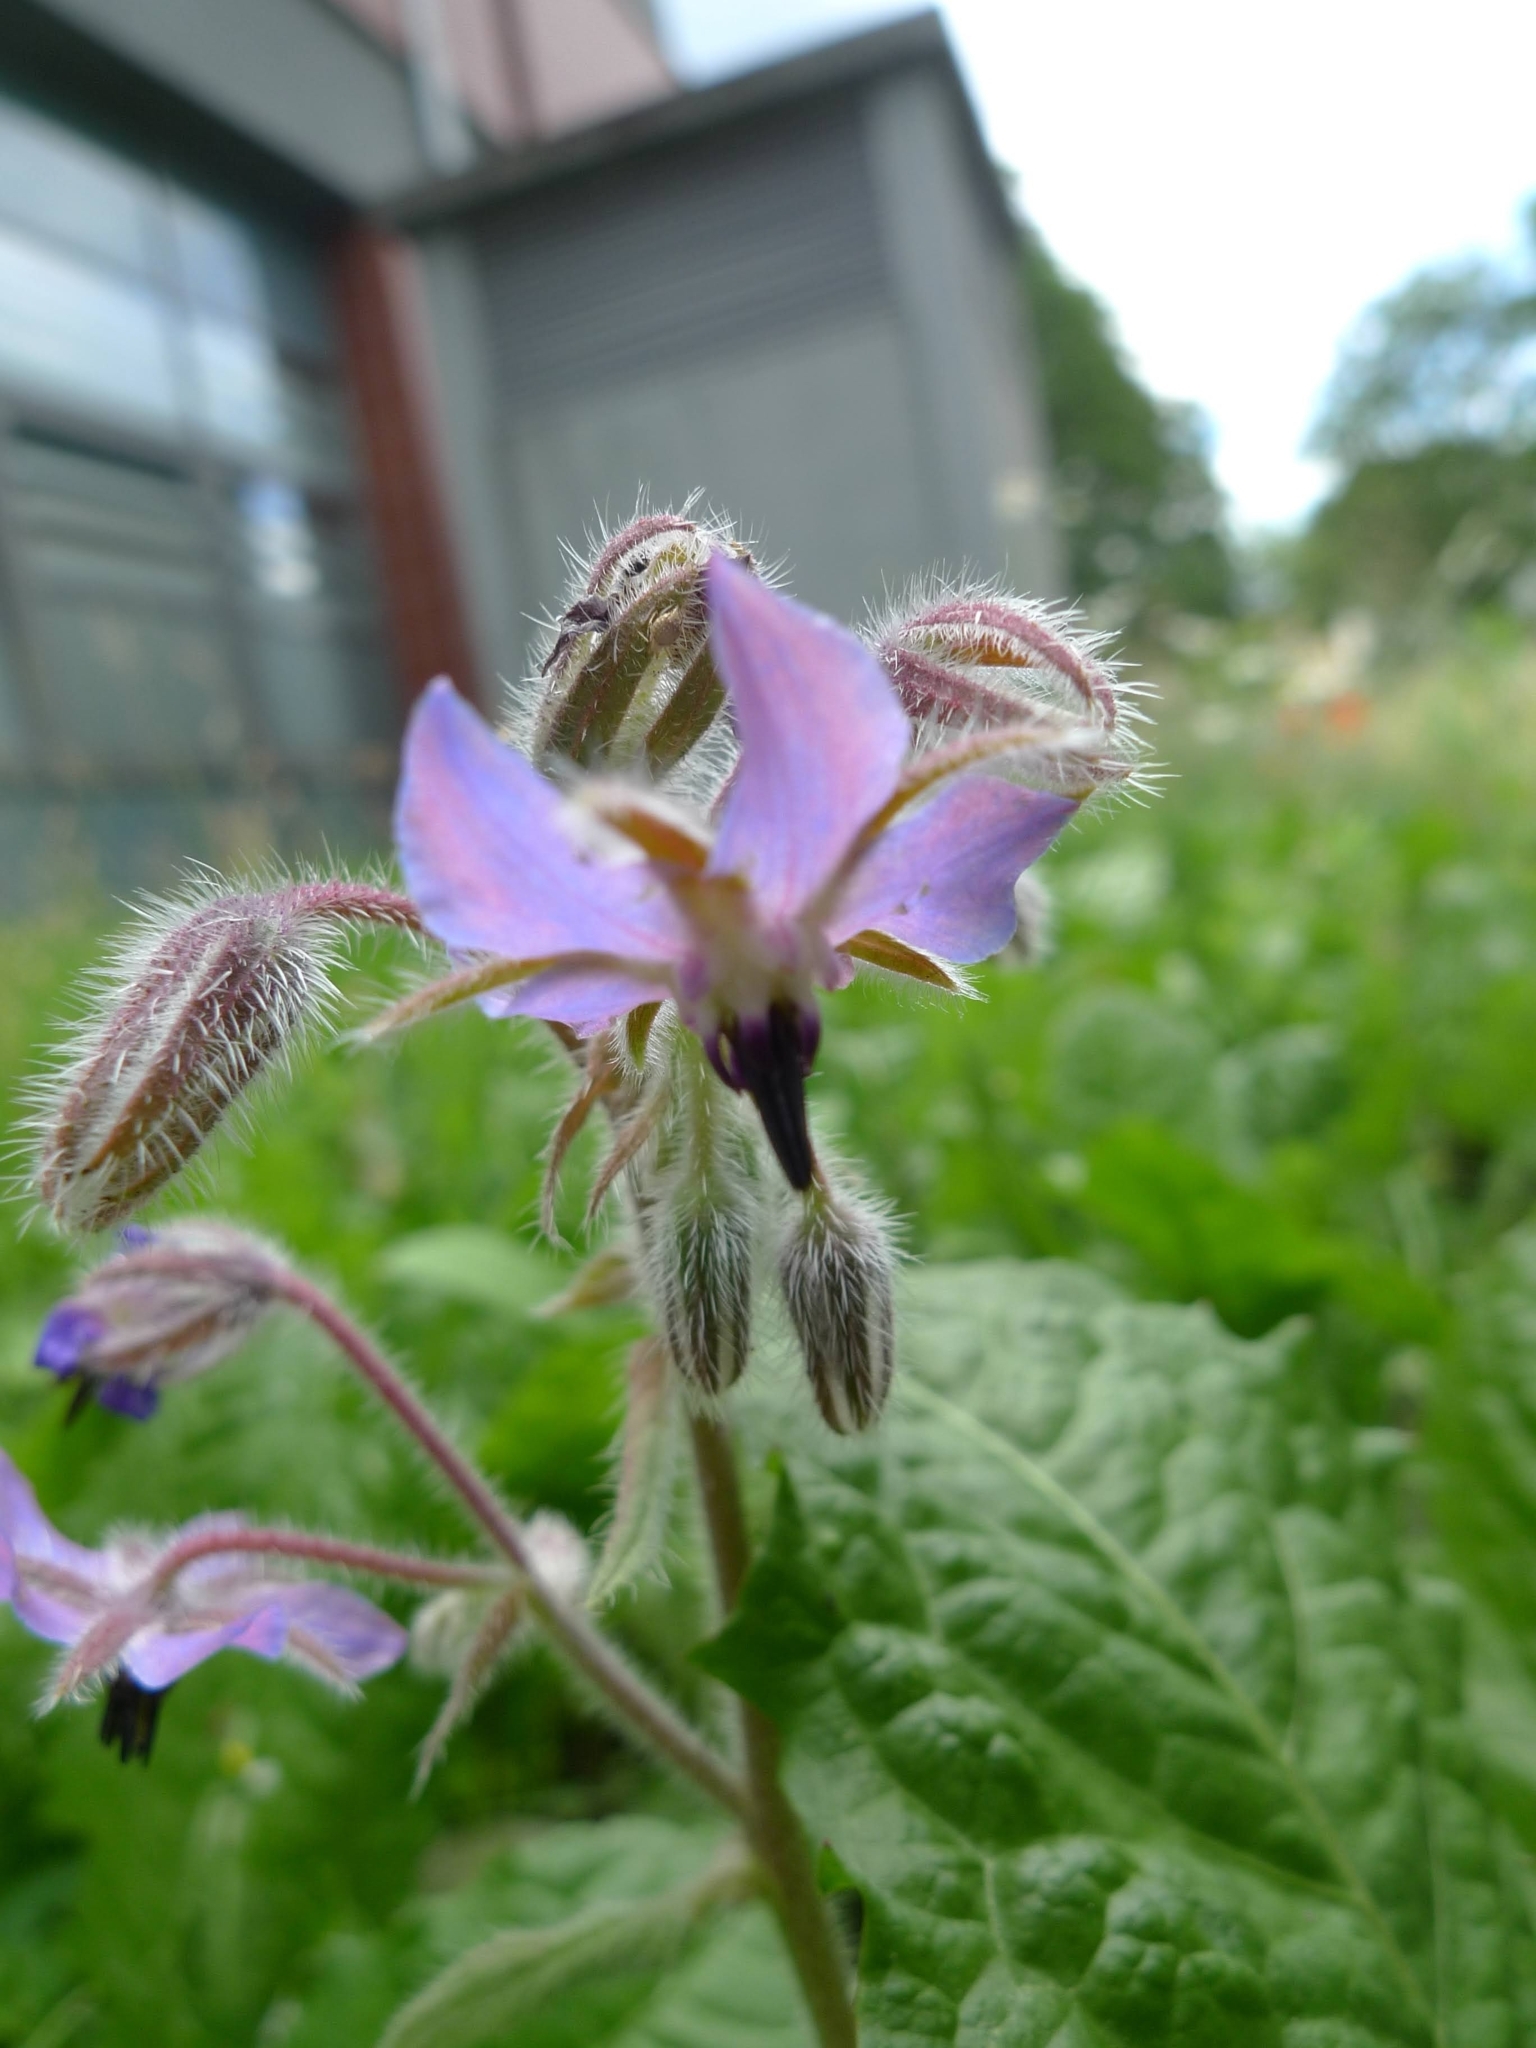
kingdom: Plantae
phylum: Tracheophyta
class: Magnoliopsida
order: Boraginales
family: Boraginaceae
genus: Borago
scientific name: Borago officinalis
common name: Borage
